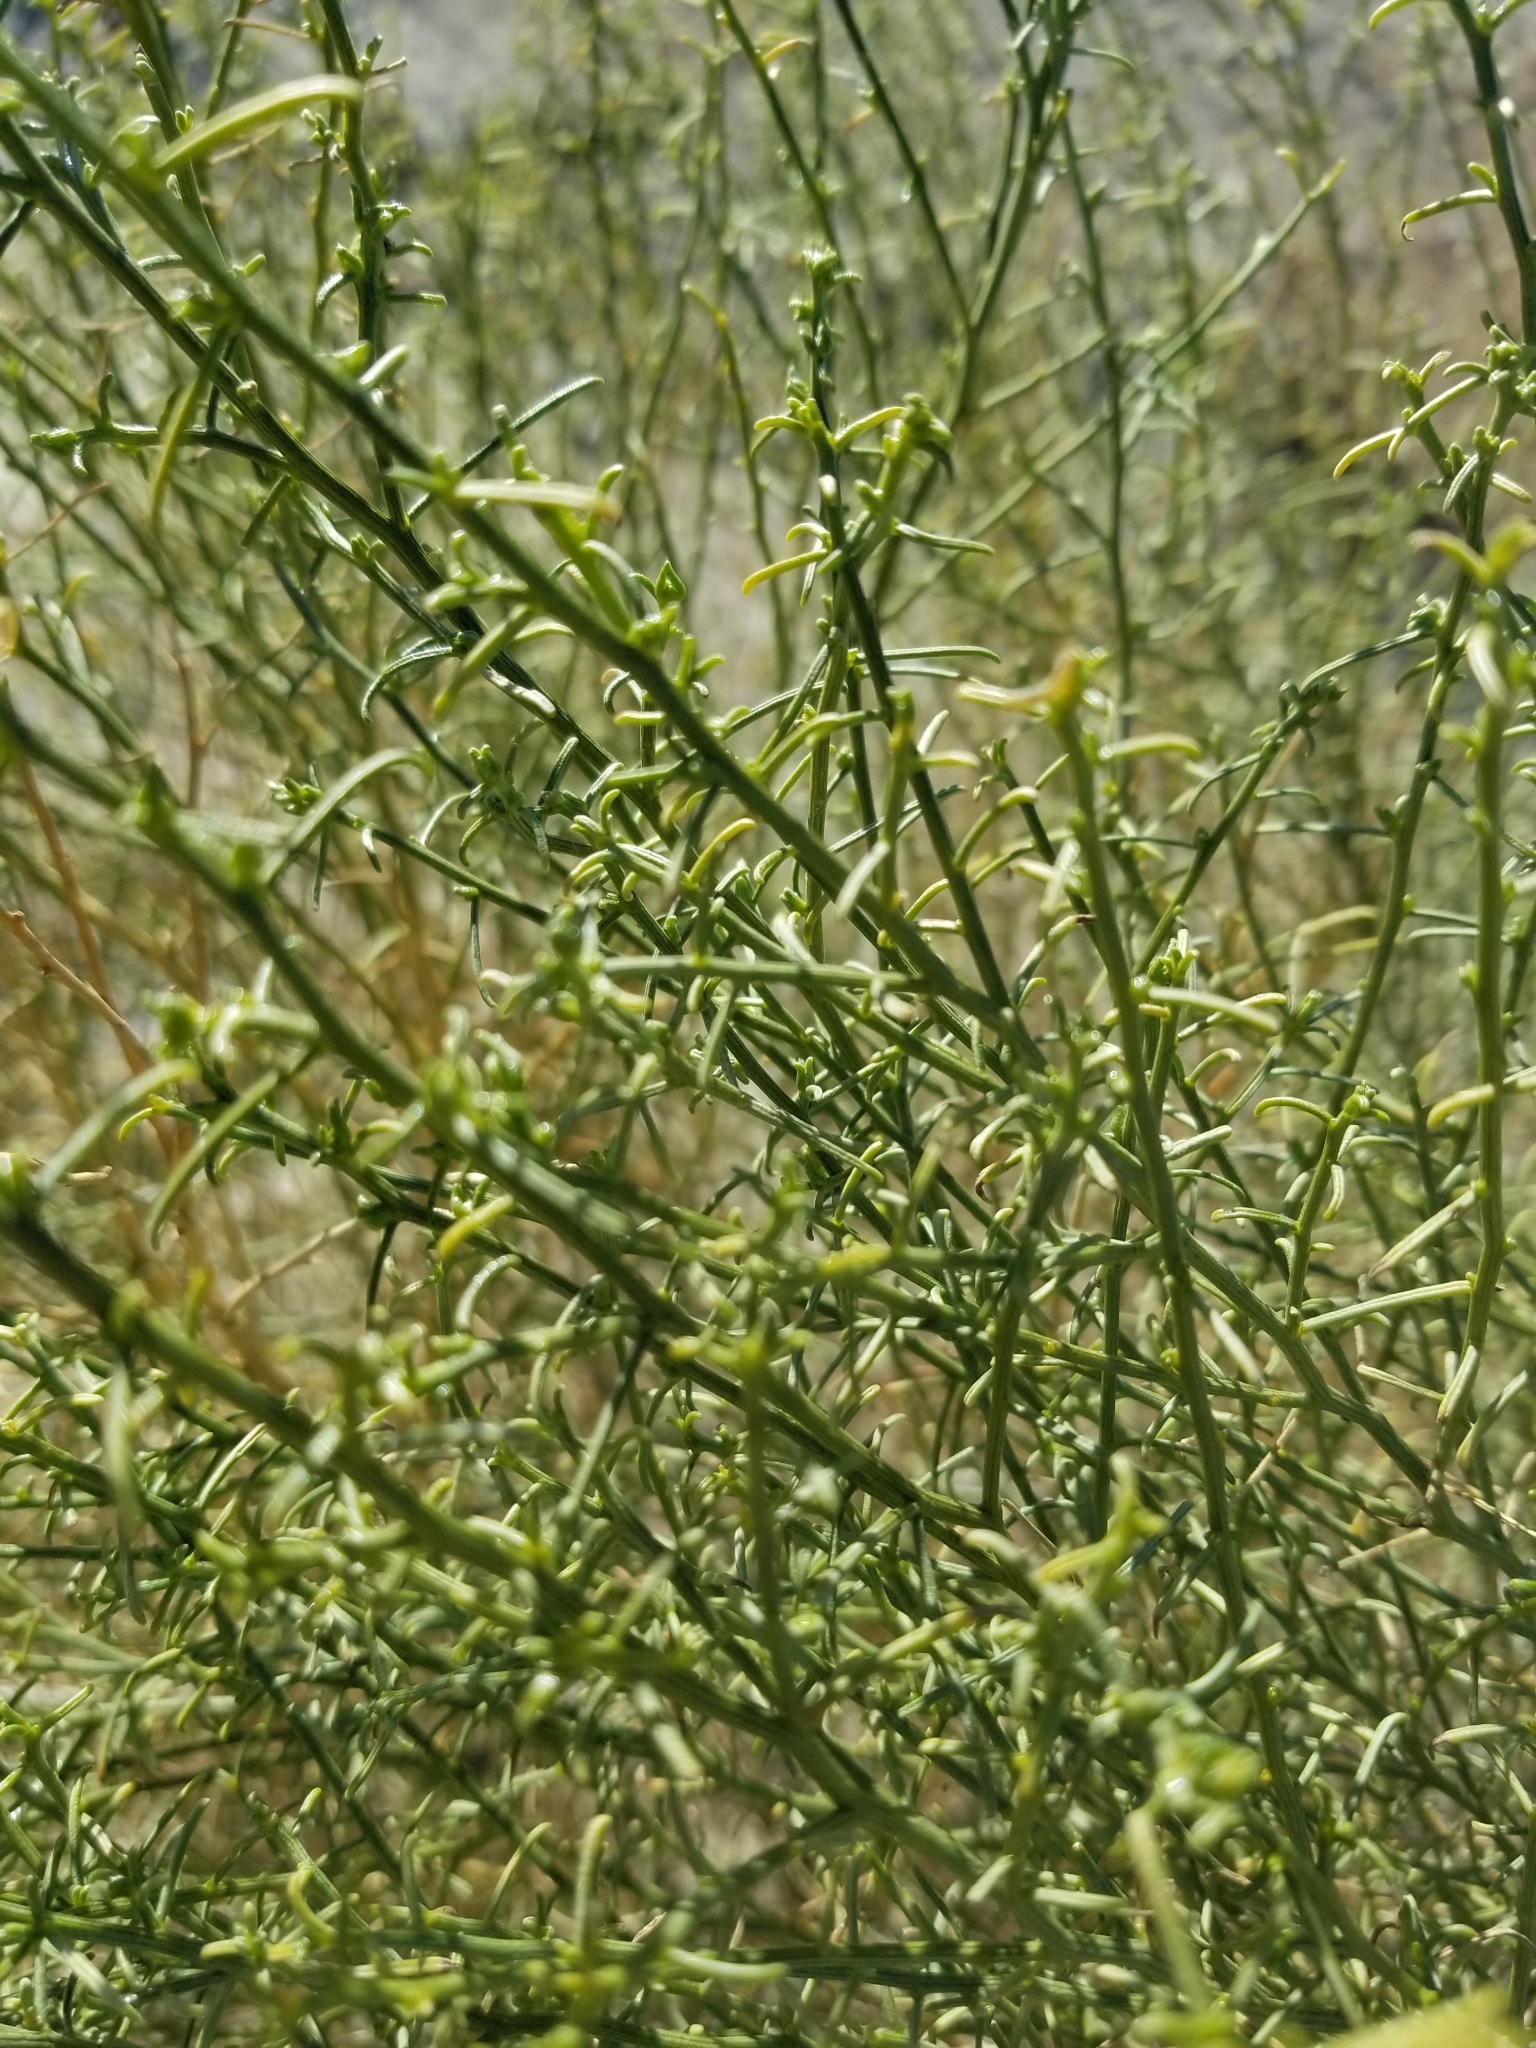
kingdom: Plantae
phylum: Tracheophyta
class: Magnoliopsida
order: Asterales
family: Asteraceae
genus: Ambrosia
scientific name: Ambrosia salsola
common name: Burrobrush
